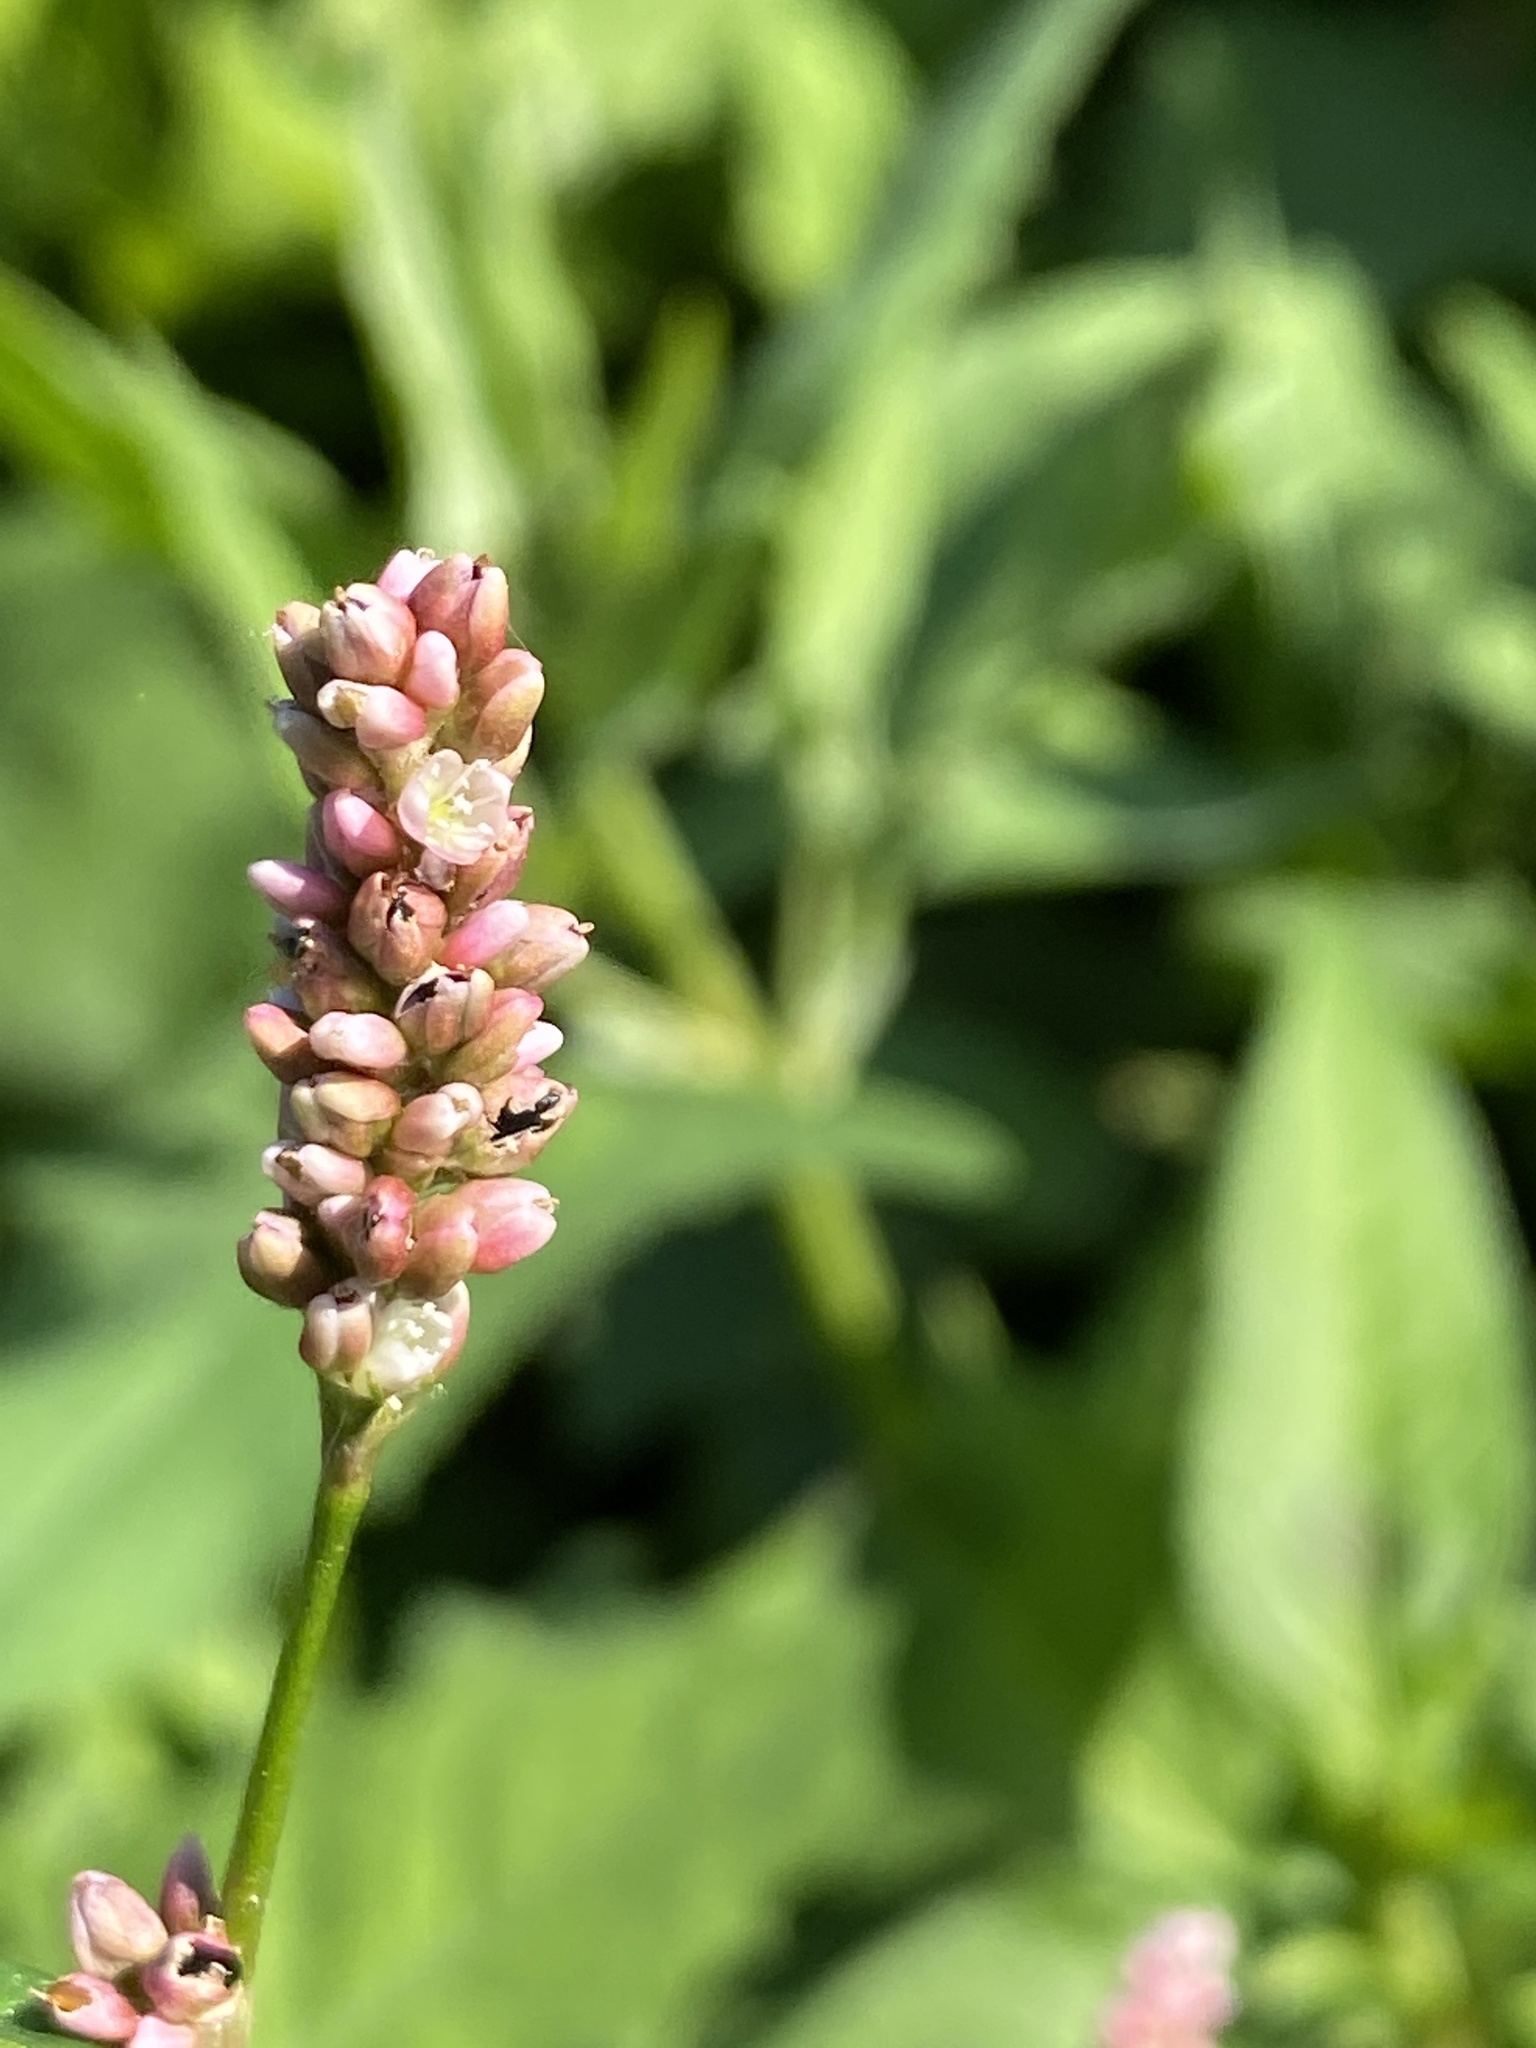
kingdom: Plantae
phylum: Tracheophyta
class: Magnoliopsida
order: Caryophyllales
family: Polygonaceae
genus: Persicaria
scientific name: Persicaria maculosa
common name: Redshank
